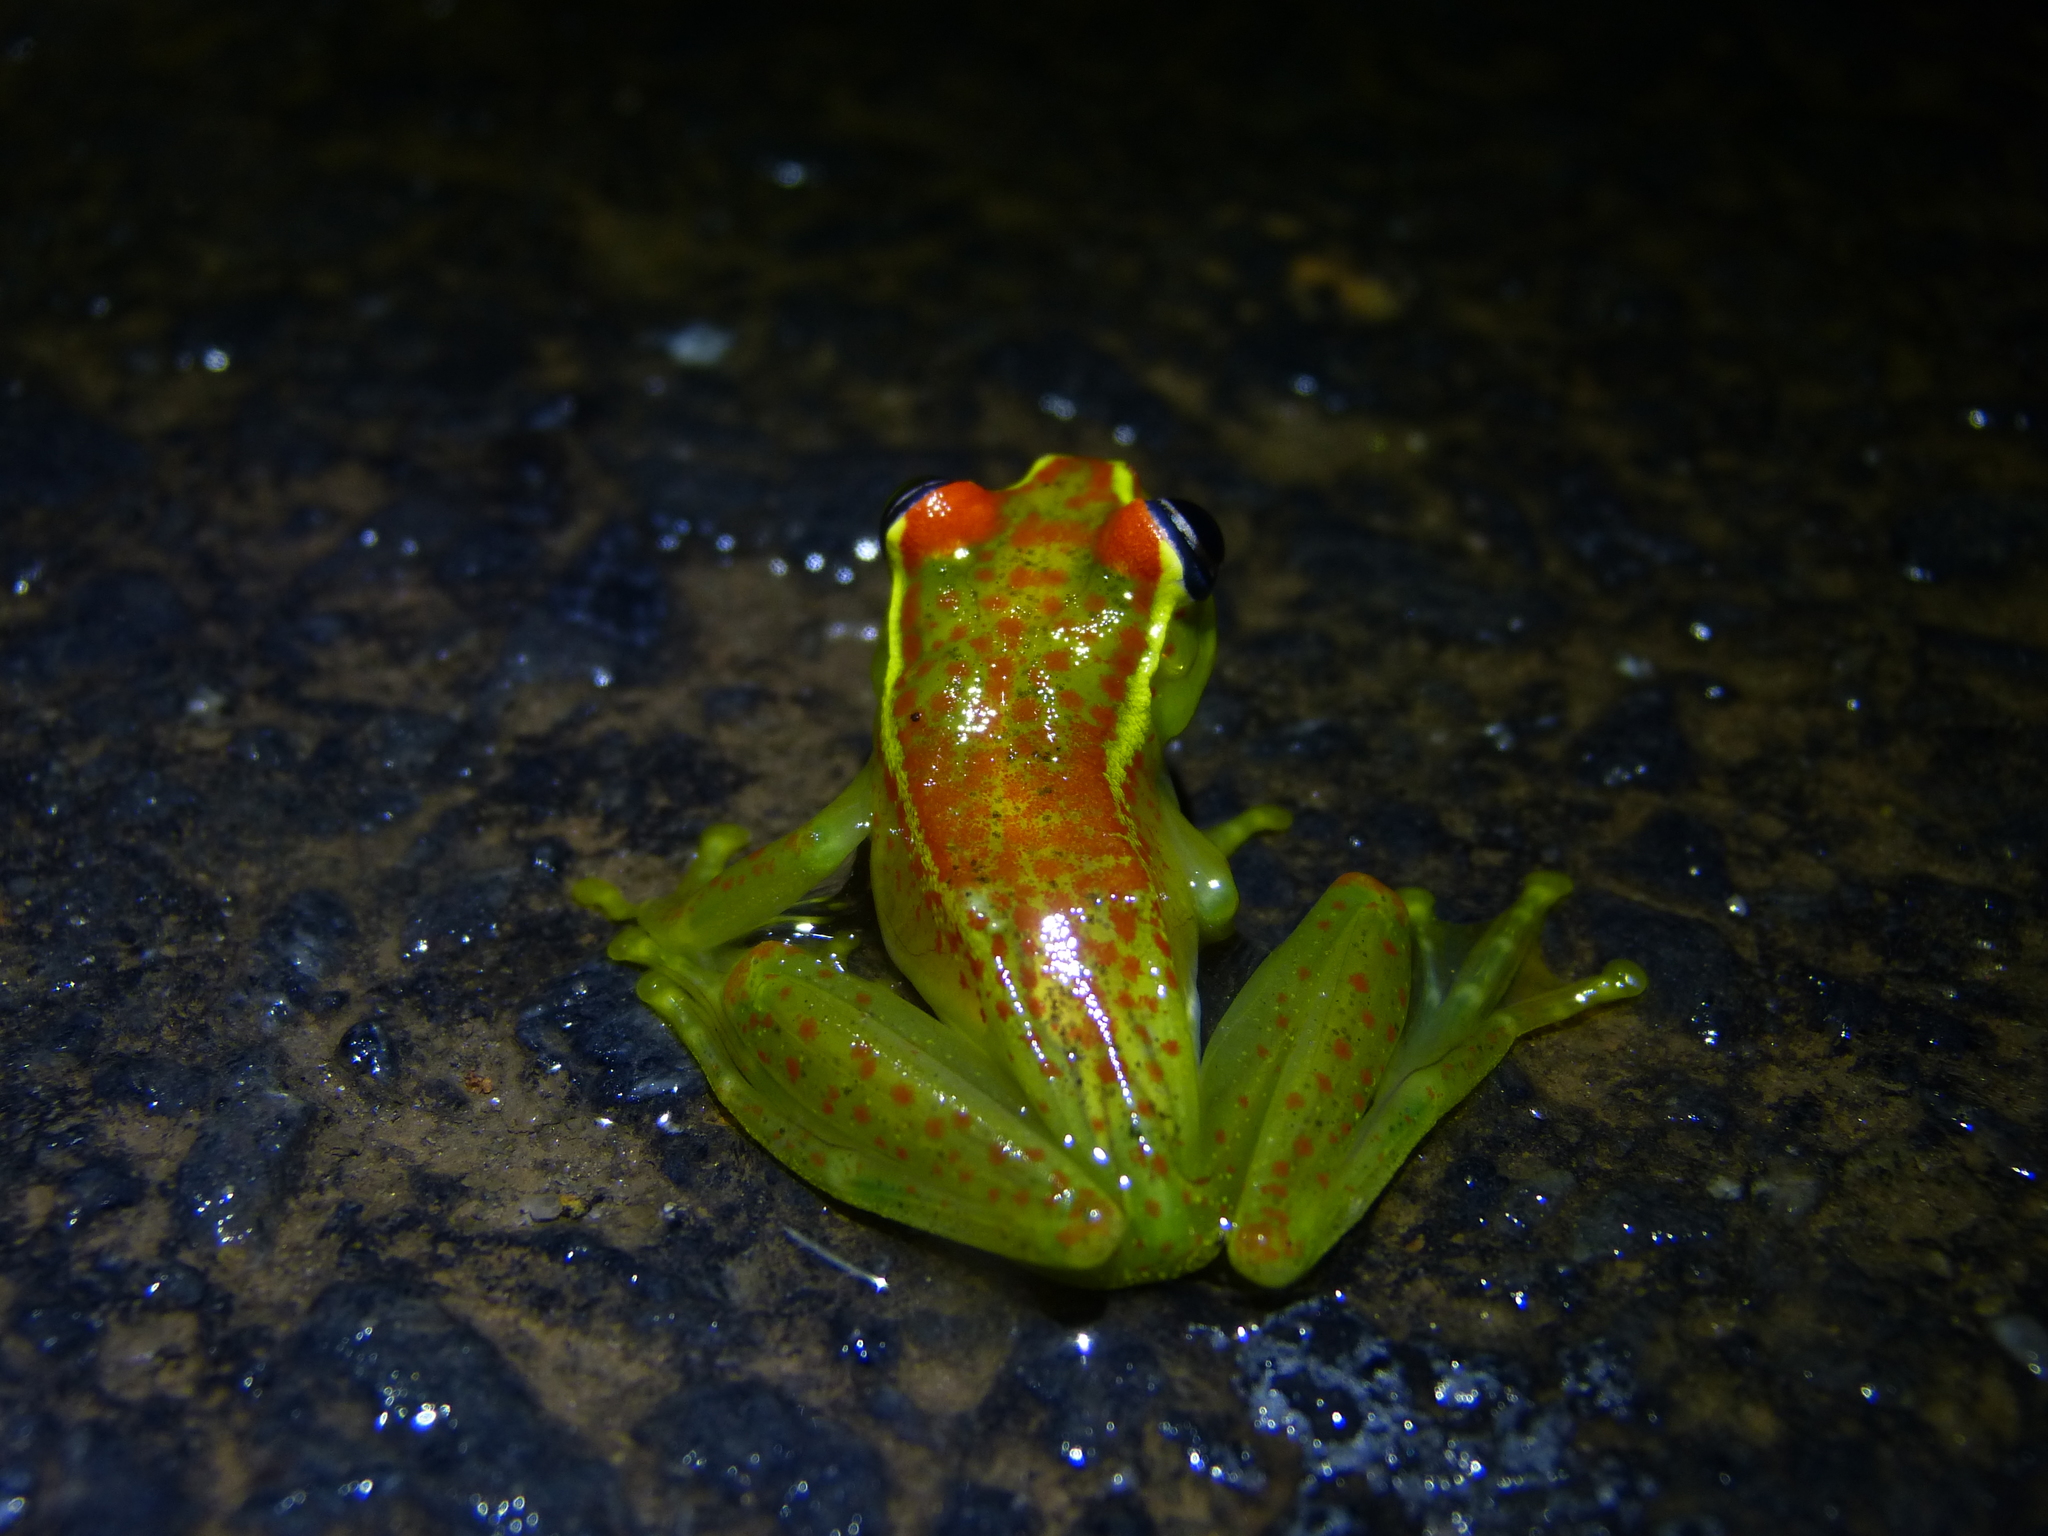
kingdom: Animalia
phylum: Chordata
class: Amphibia
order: Anura
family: Mantellidae
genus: Boophis
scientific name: Boophis bottae
